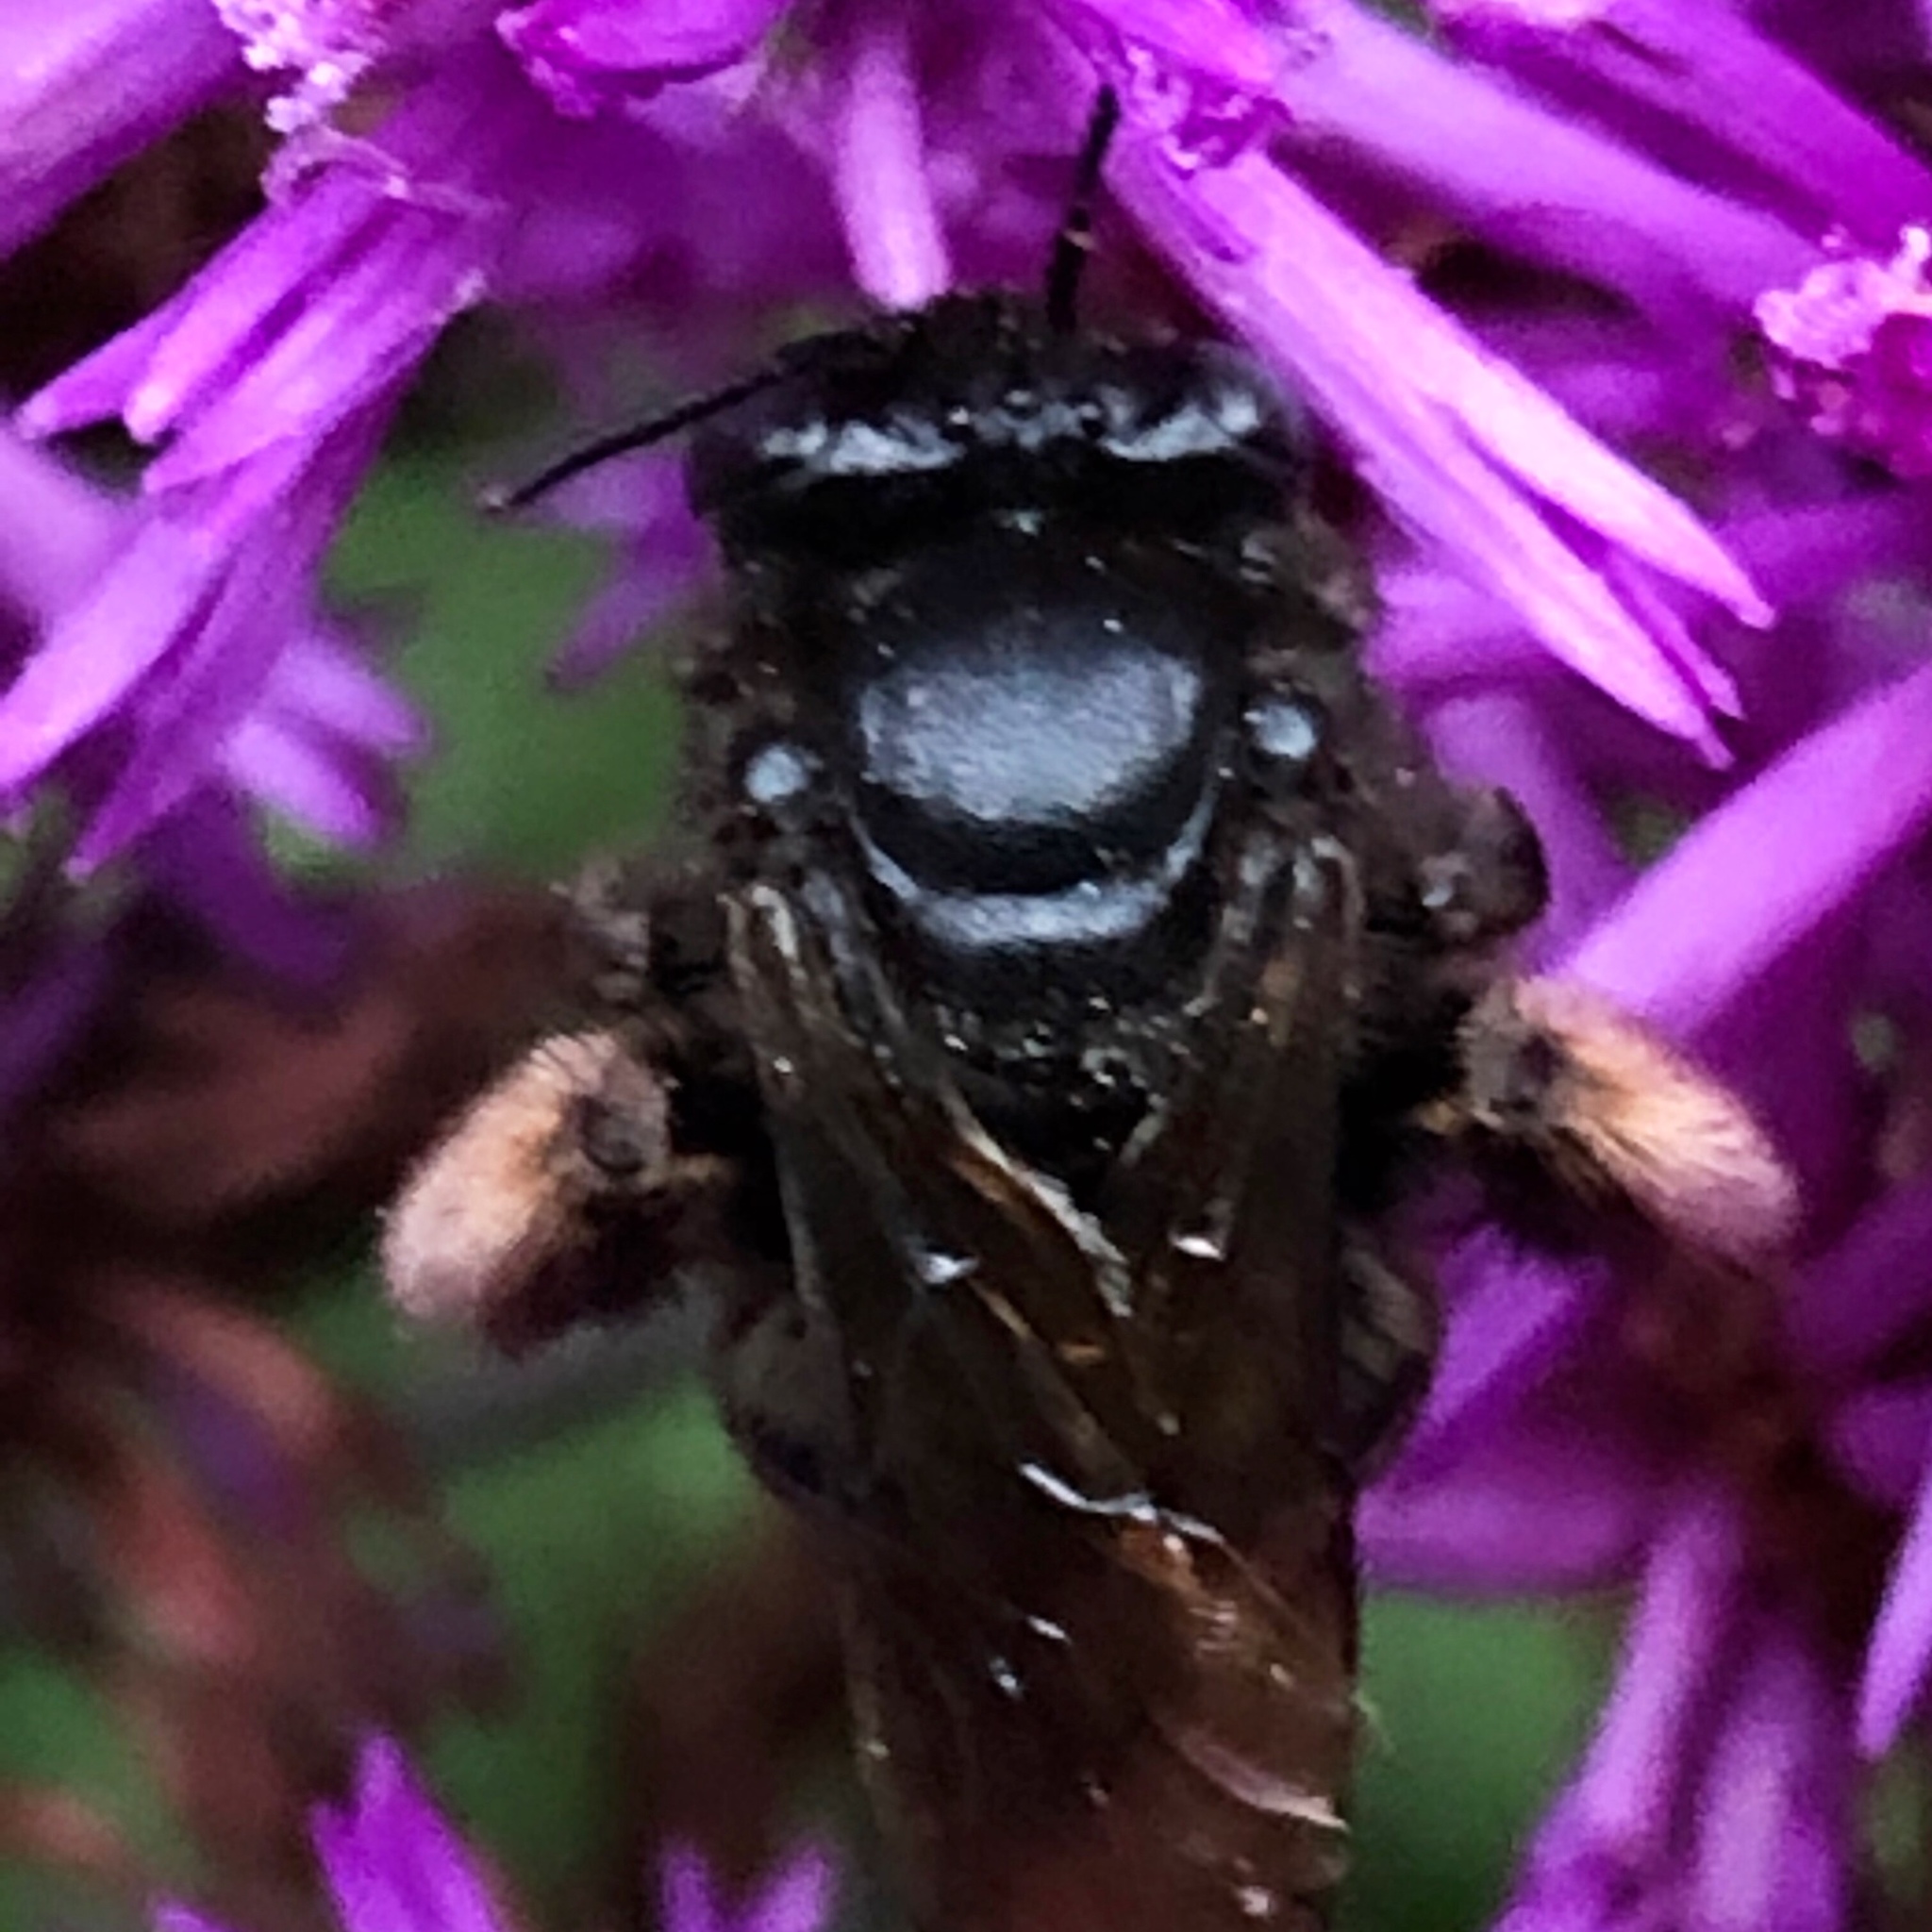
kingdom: Animalia
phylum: Arthropoda
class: Insecta
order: Hymenoptera
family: Apidae
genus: Melissodes
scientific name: Melissodes bimaculatus
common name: Two-spotted long-horned bee
